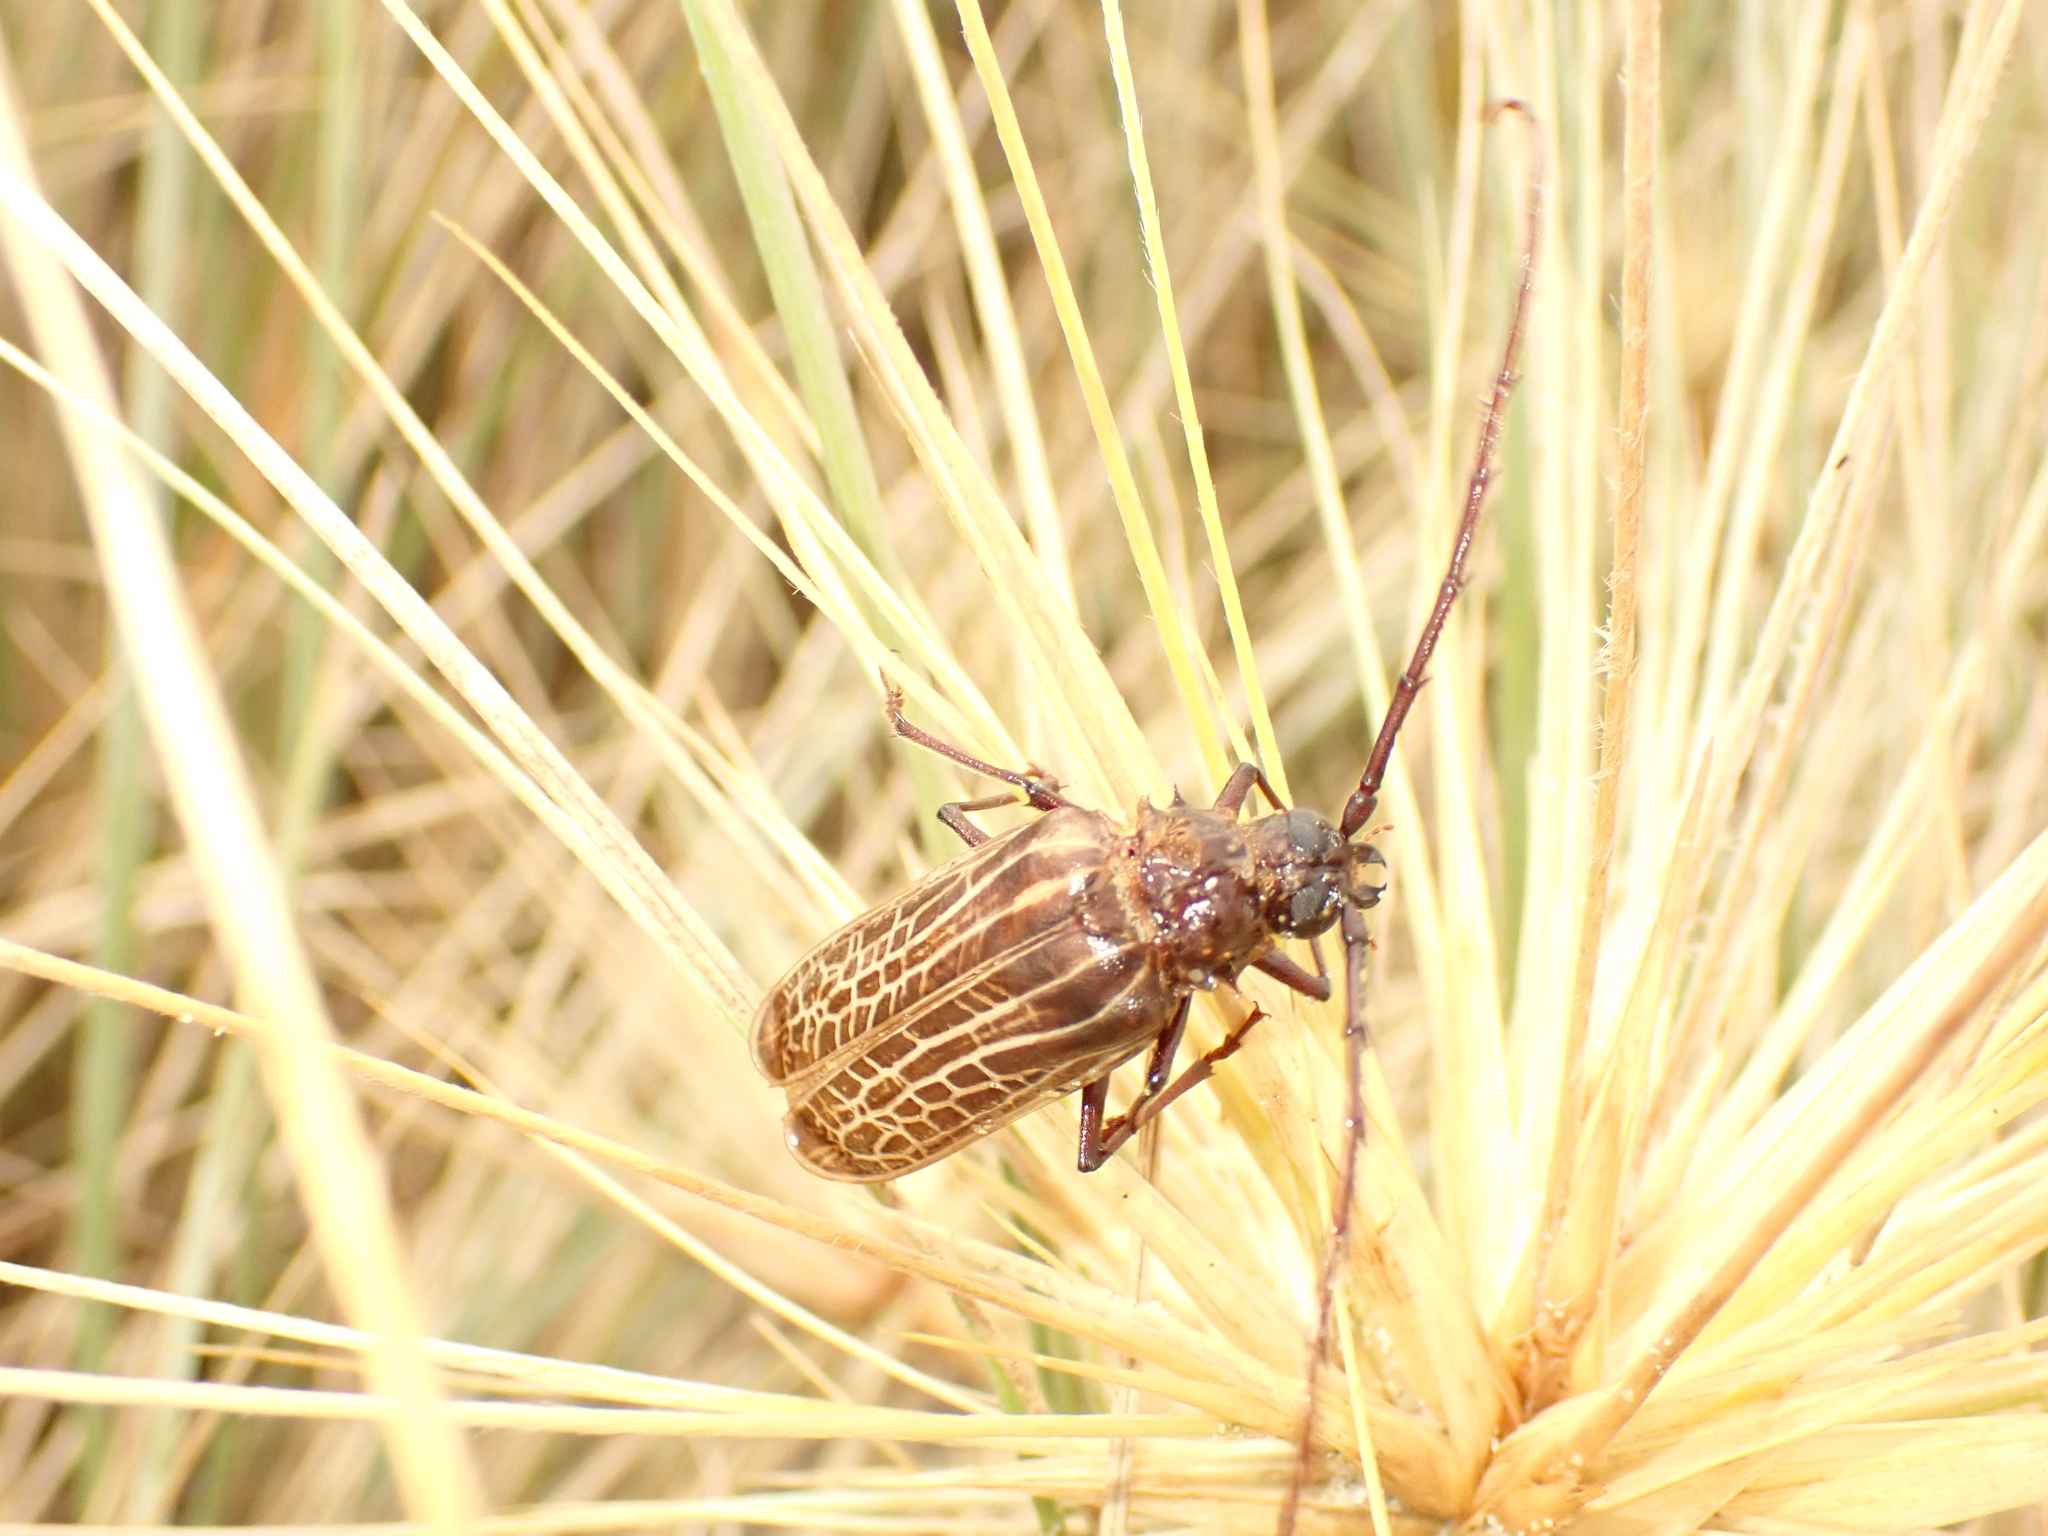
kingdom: Animalia
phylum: Arthropoda
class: Insecta
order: Coleoptera
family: Cerambycidae
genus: Prionoplus
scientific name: Prionoplus reticularis
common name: Huhu beetle
